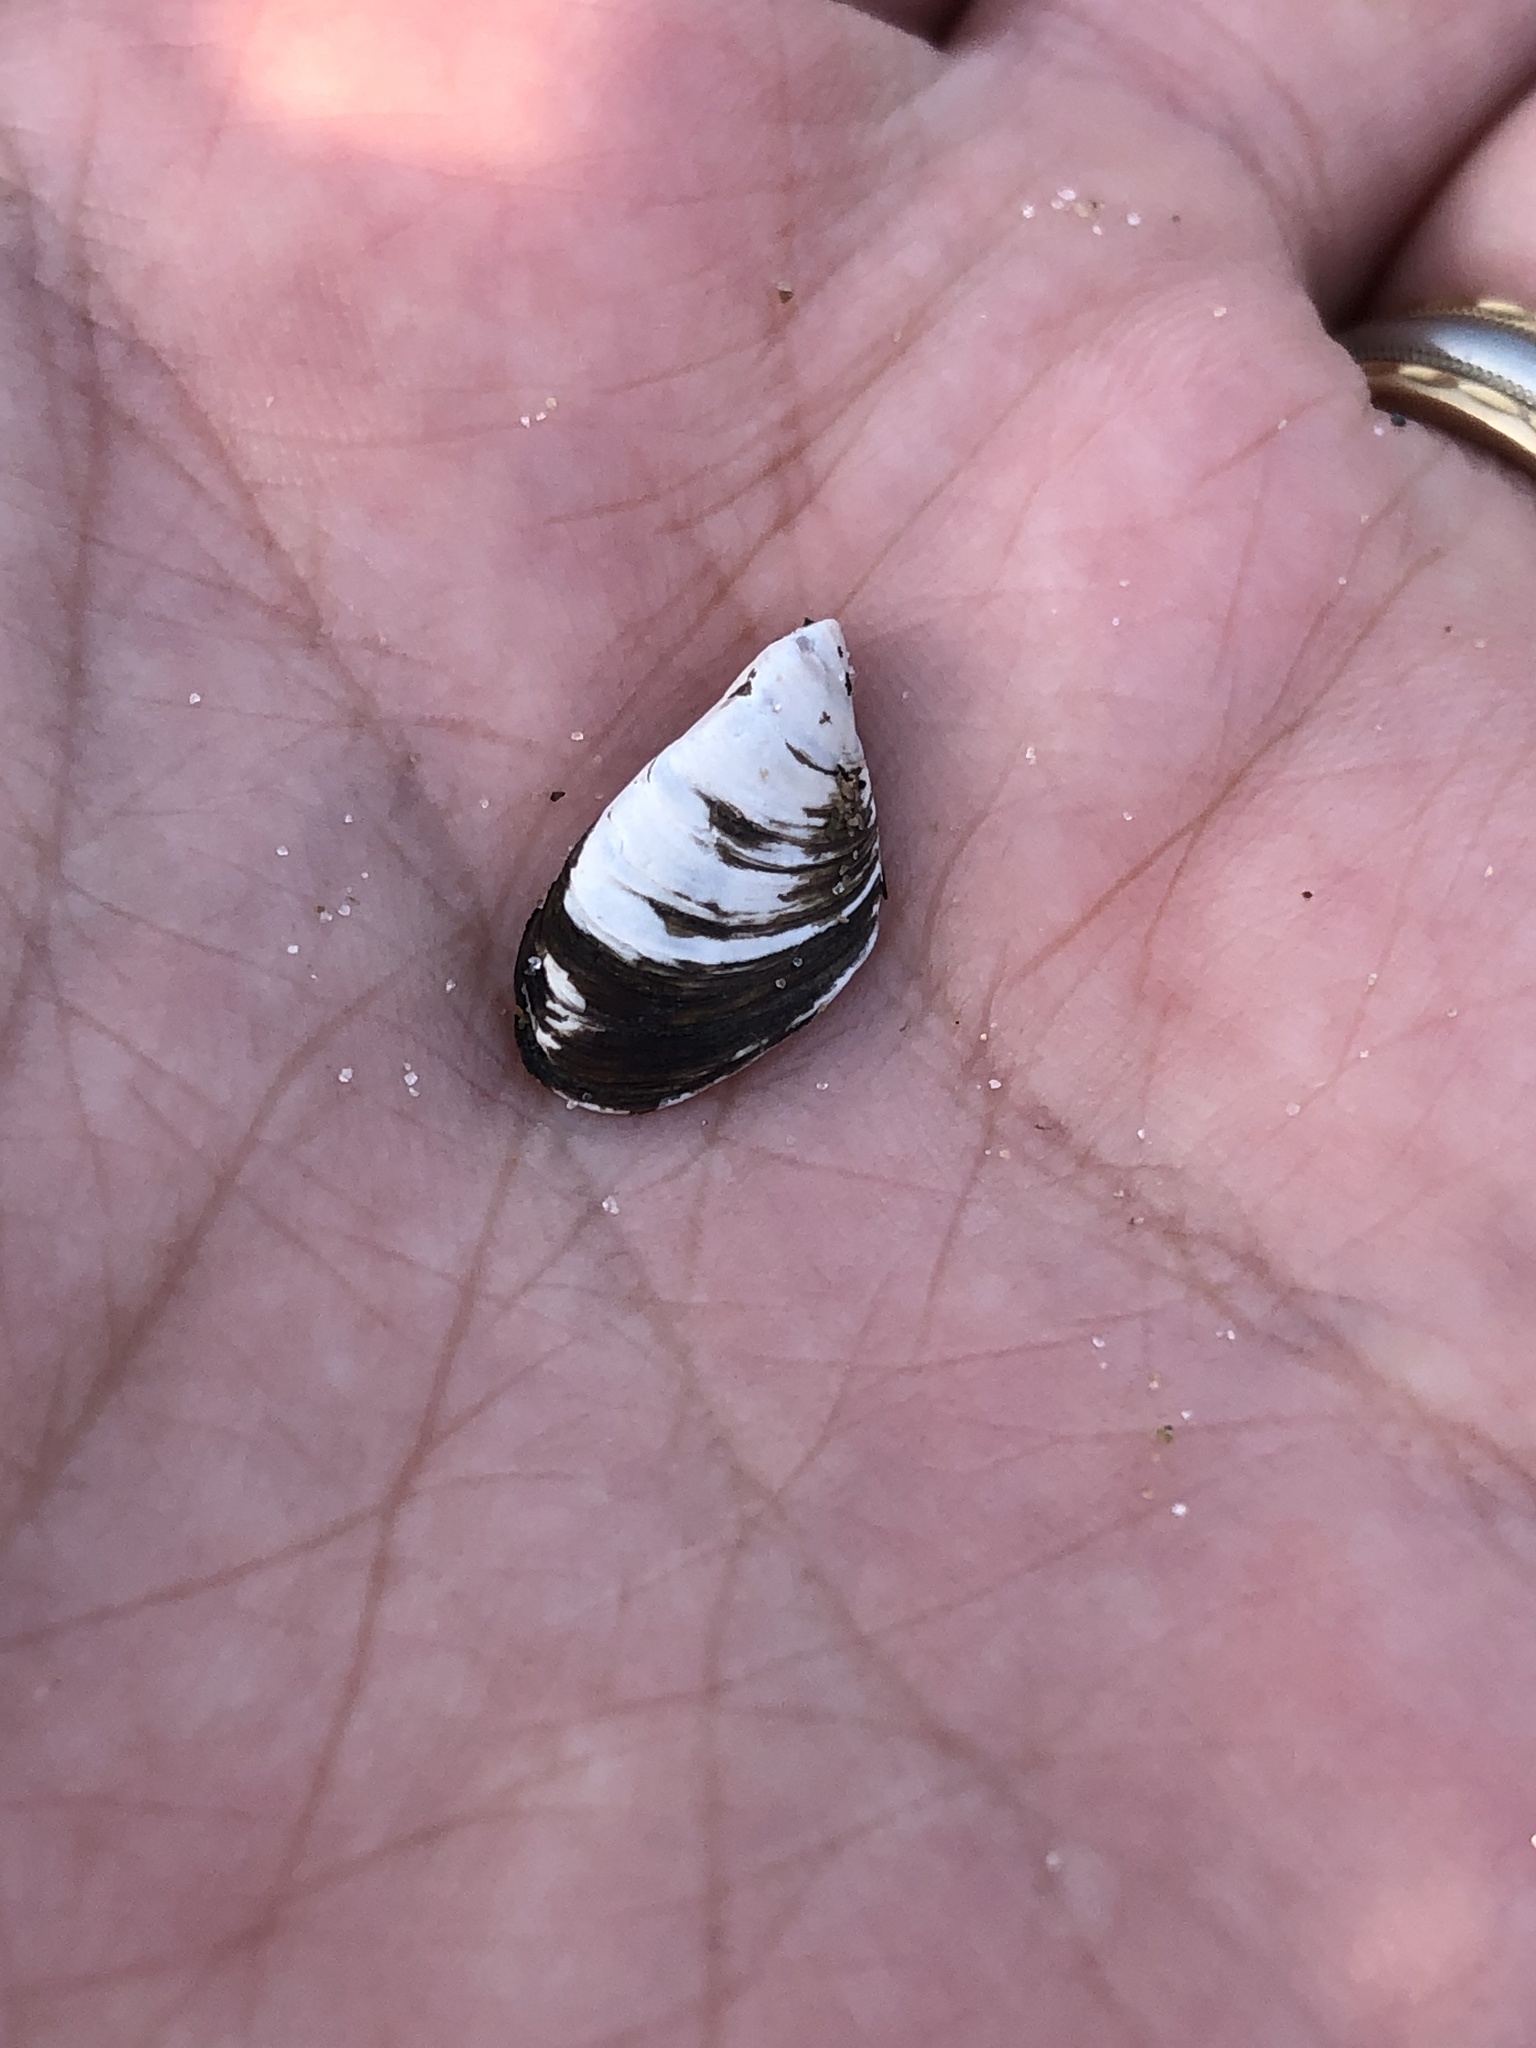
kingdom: Animalia
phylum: Mollusca
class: Bivalvia
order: Myida
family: Dreissenidae
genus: Dreissena
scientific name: Dreissena polymorpha
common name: Zebra mussel
